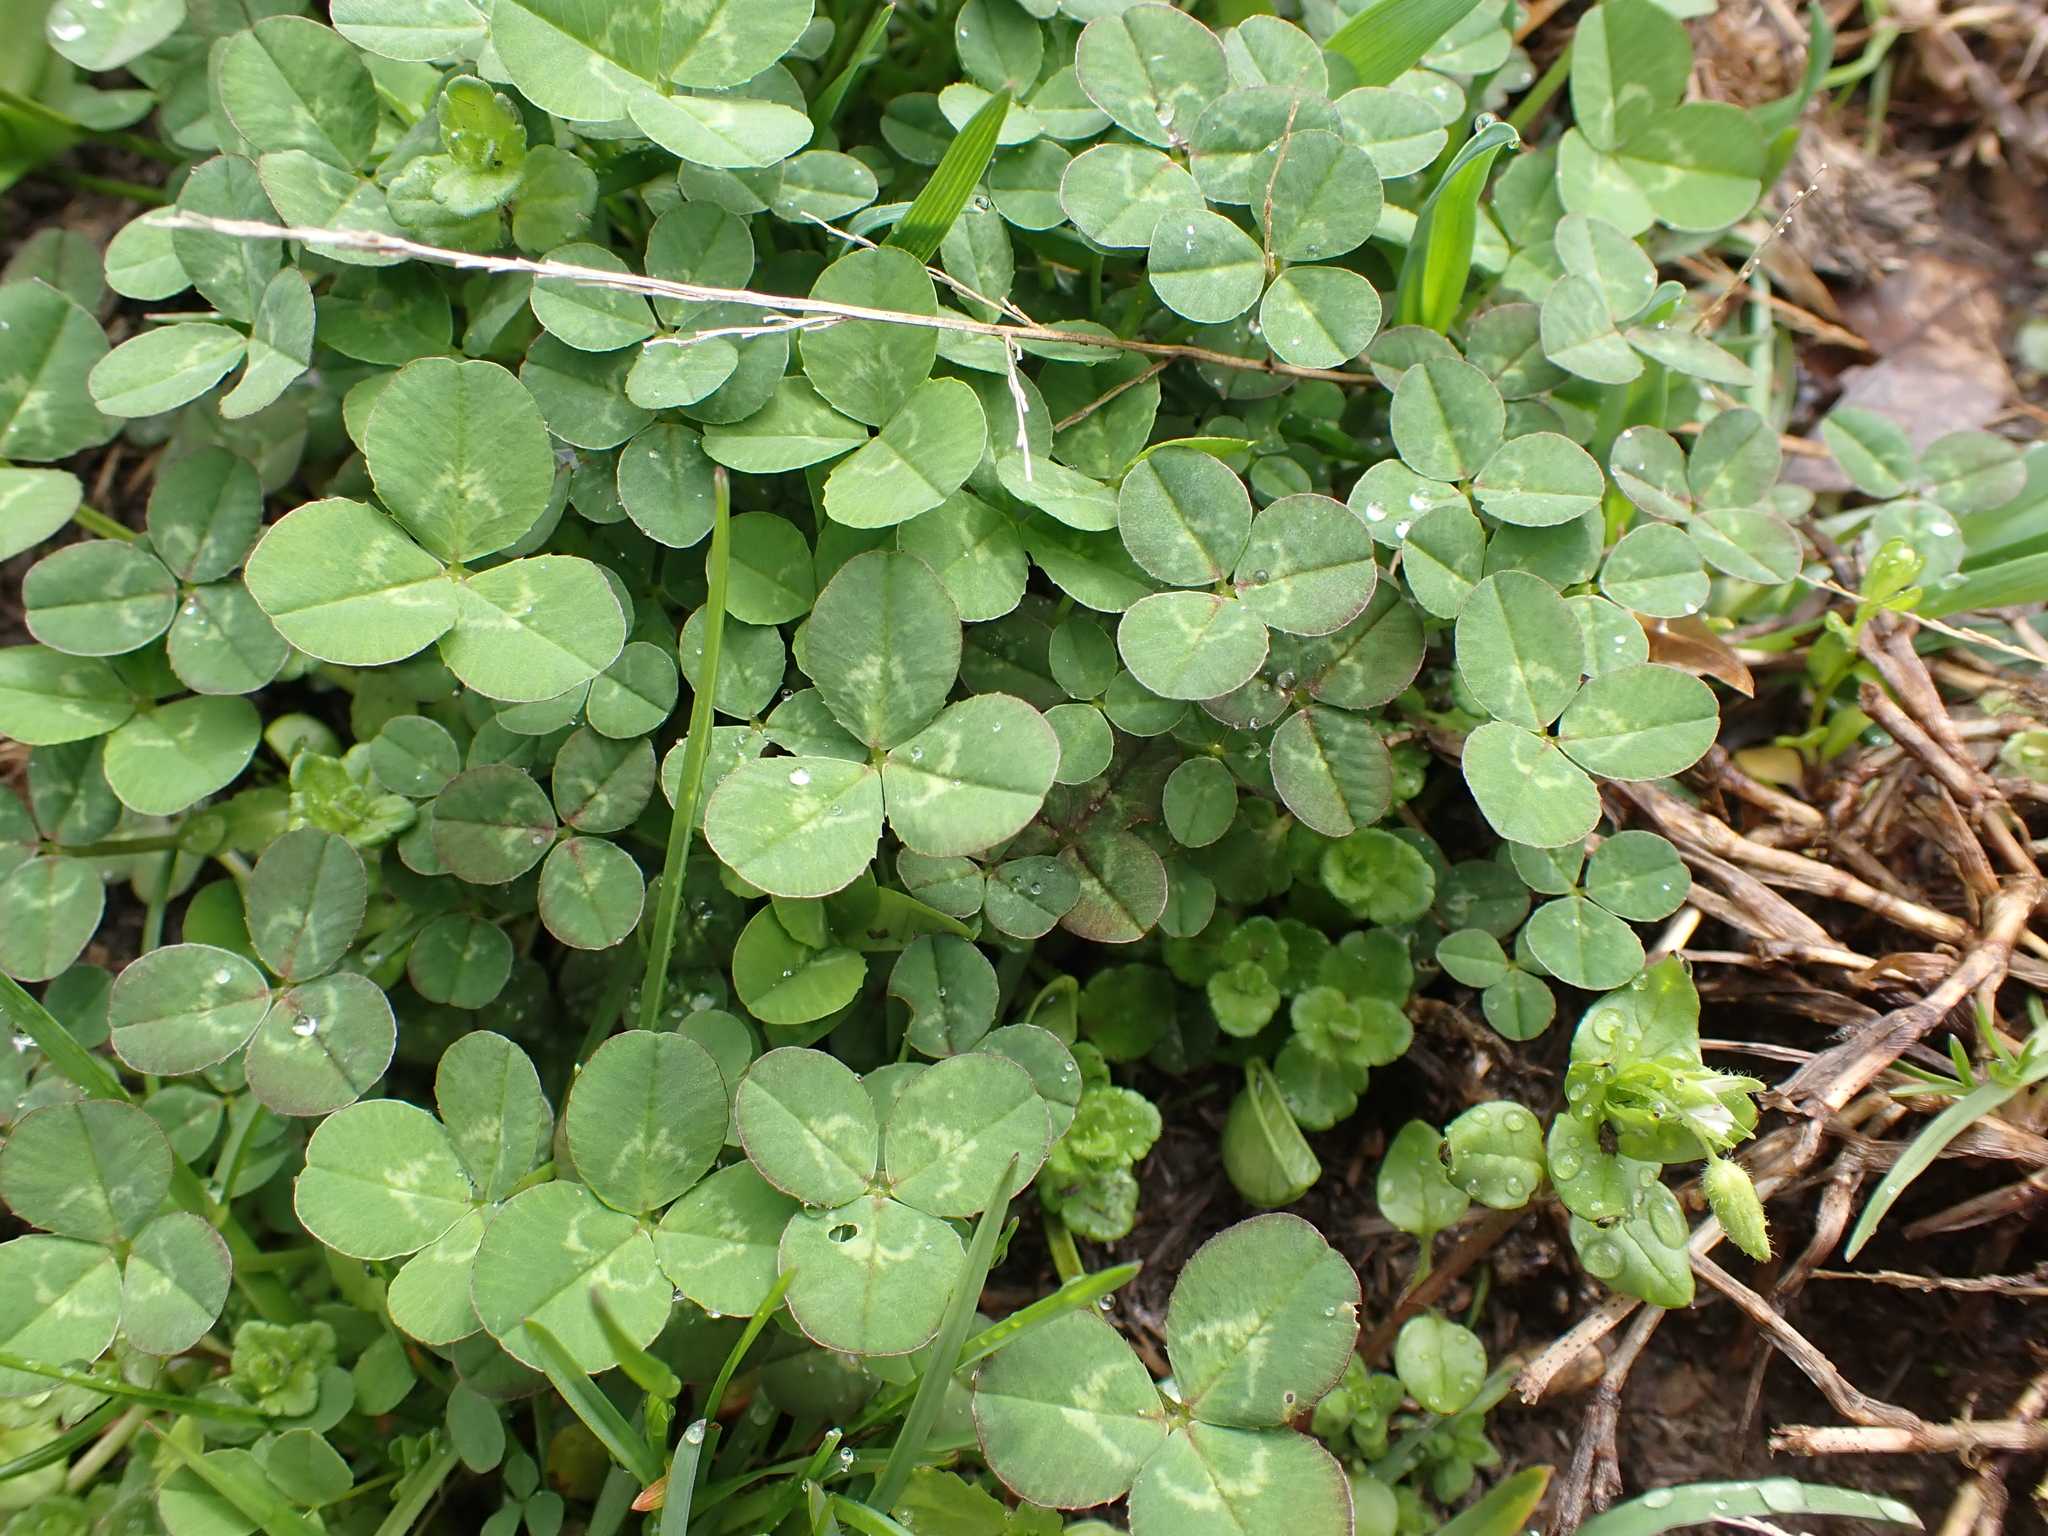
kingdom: Plantae
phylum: Tracheophyta
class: Magnoliopsida
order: Fabales
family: Fabaceae
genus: Trifolium
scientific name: Trifolium repens
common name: White clover
